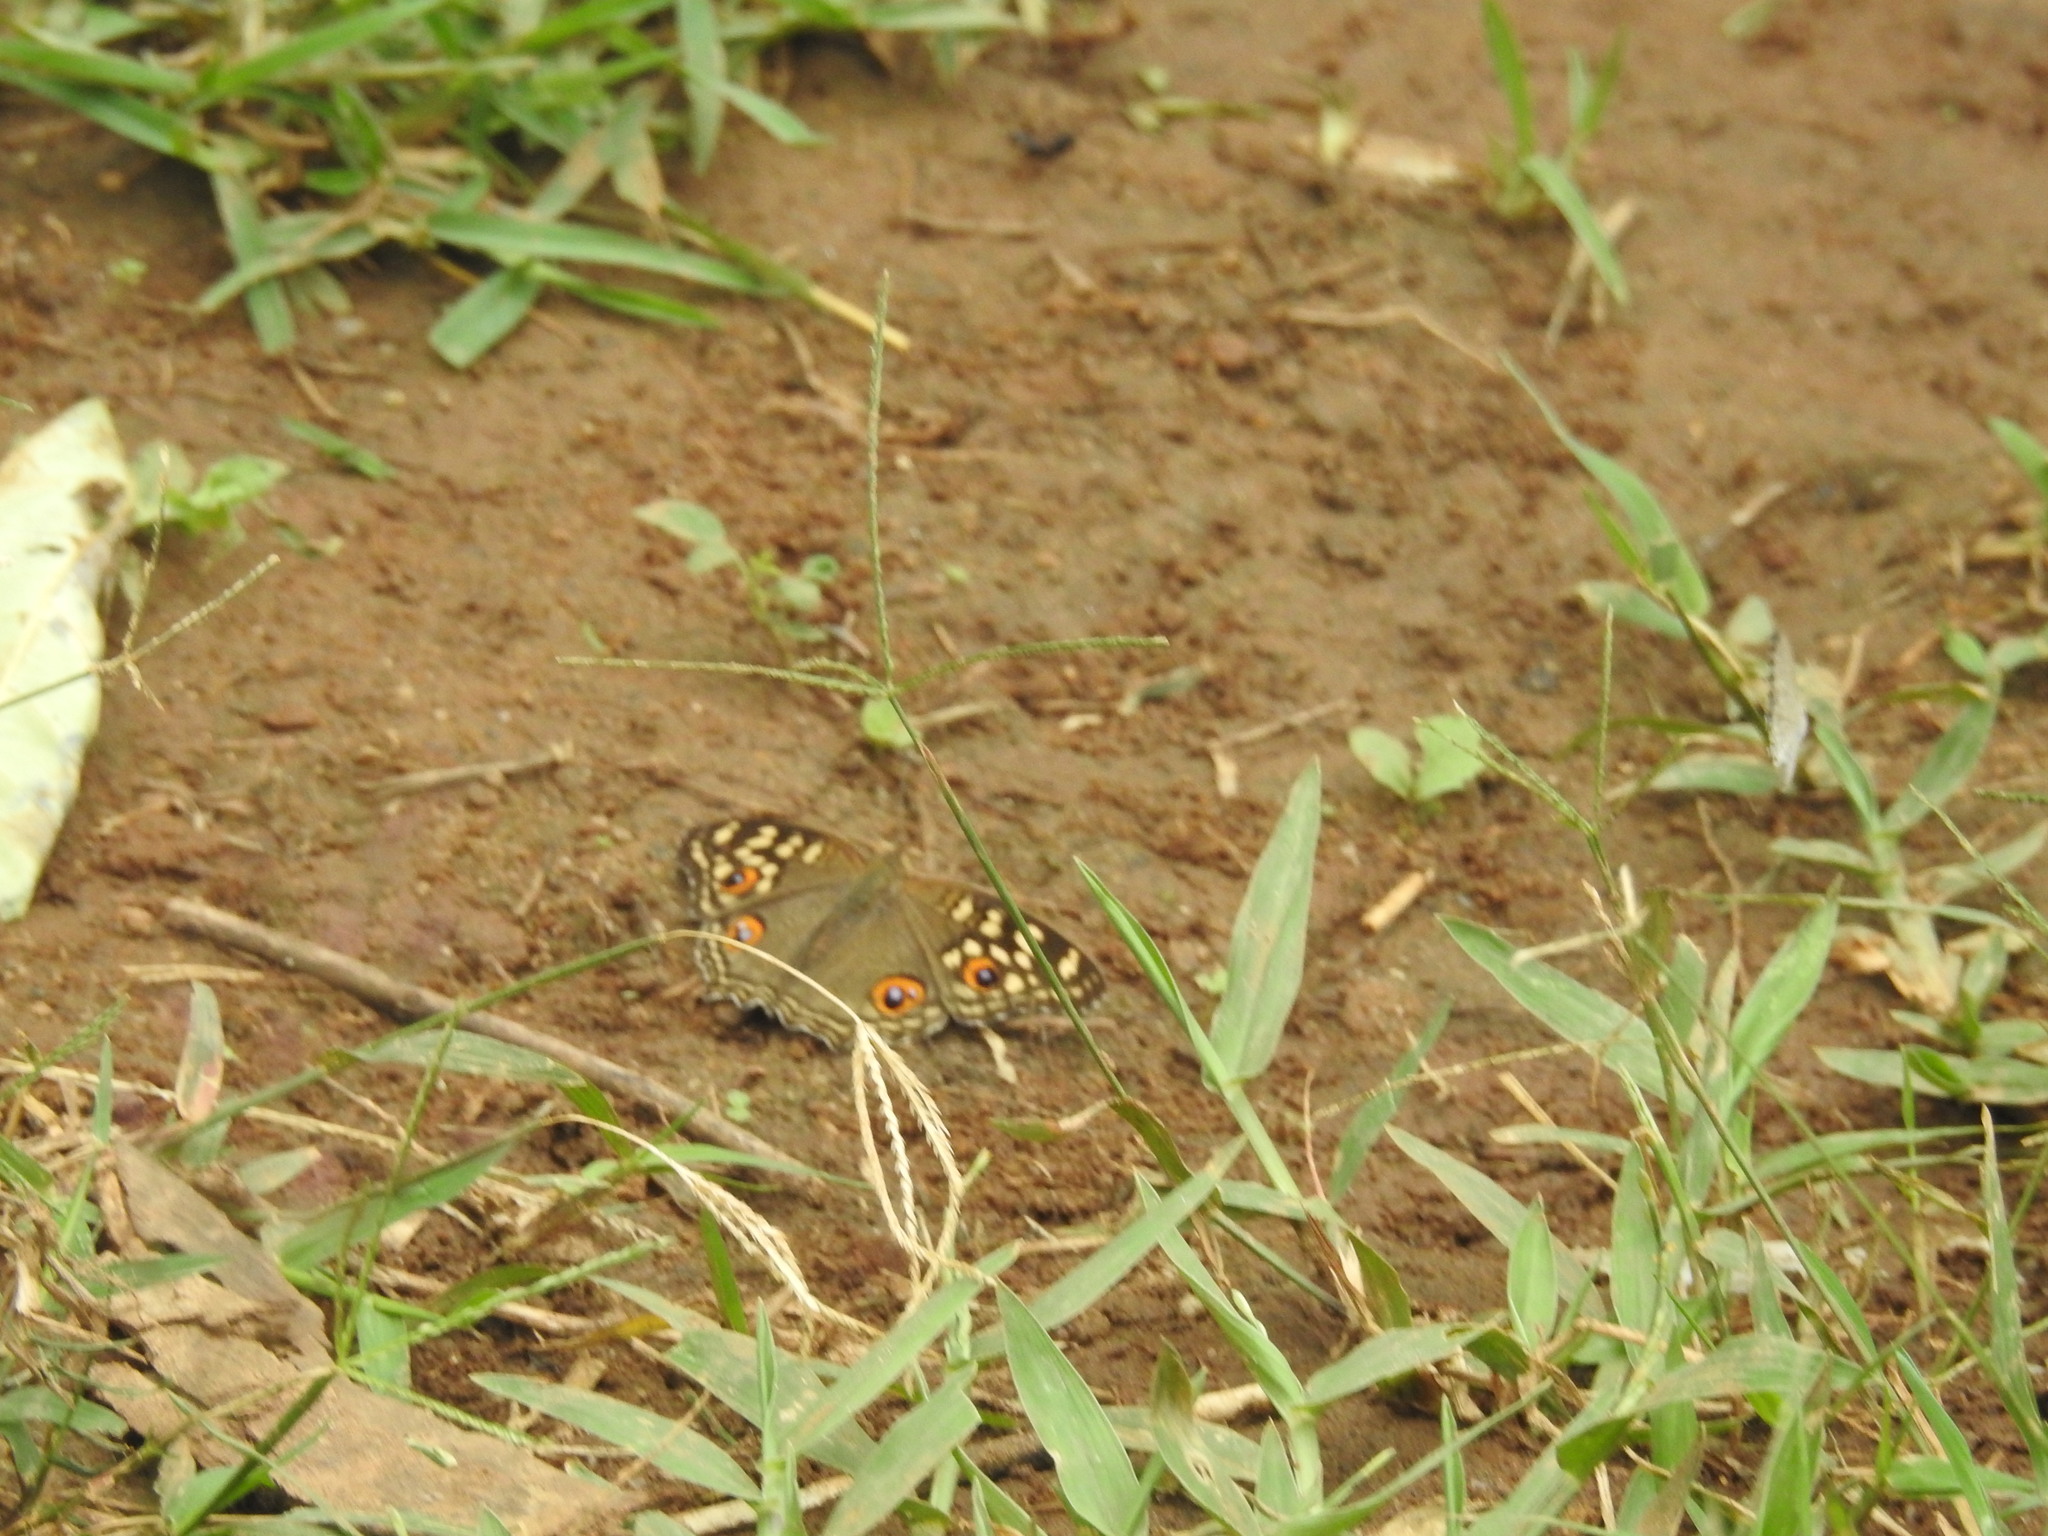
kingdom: Animalia
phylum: Arthropoda
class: Insecta
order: Lepidoptera
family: Nymphalidae
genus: Junonia
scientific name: Junonia lemonias
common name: Lemon pansy
